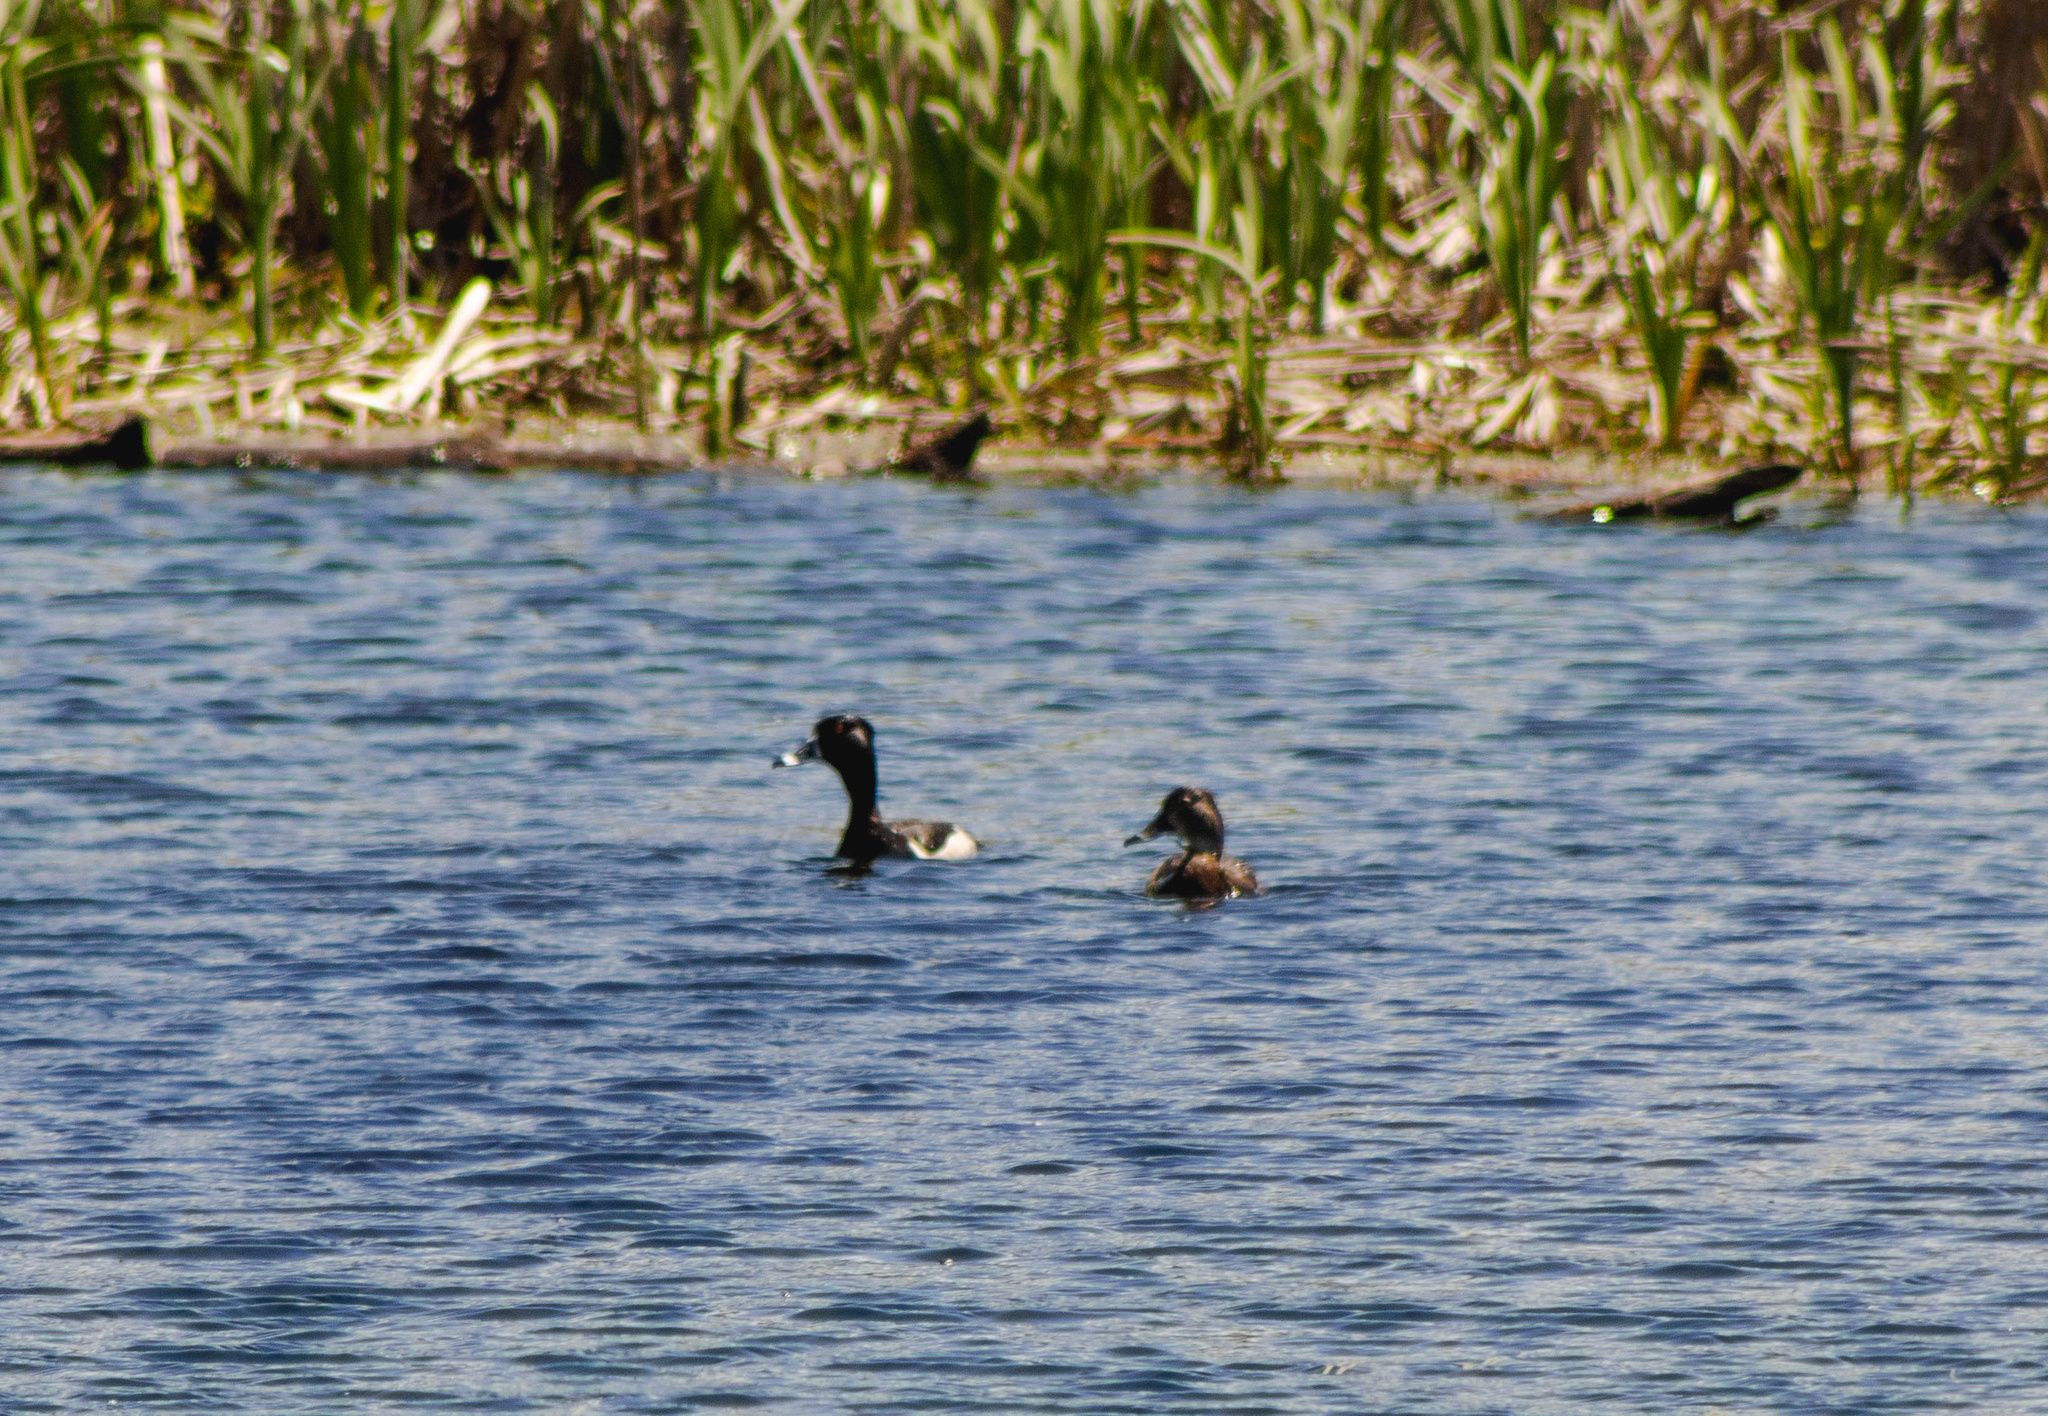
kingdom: Animalia
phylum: Chordata
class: Aves
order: Anseriformes
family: Anatidae
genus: Aythya
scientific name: Aythya collaris
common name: Ring-necked duck
